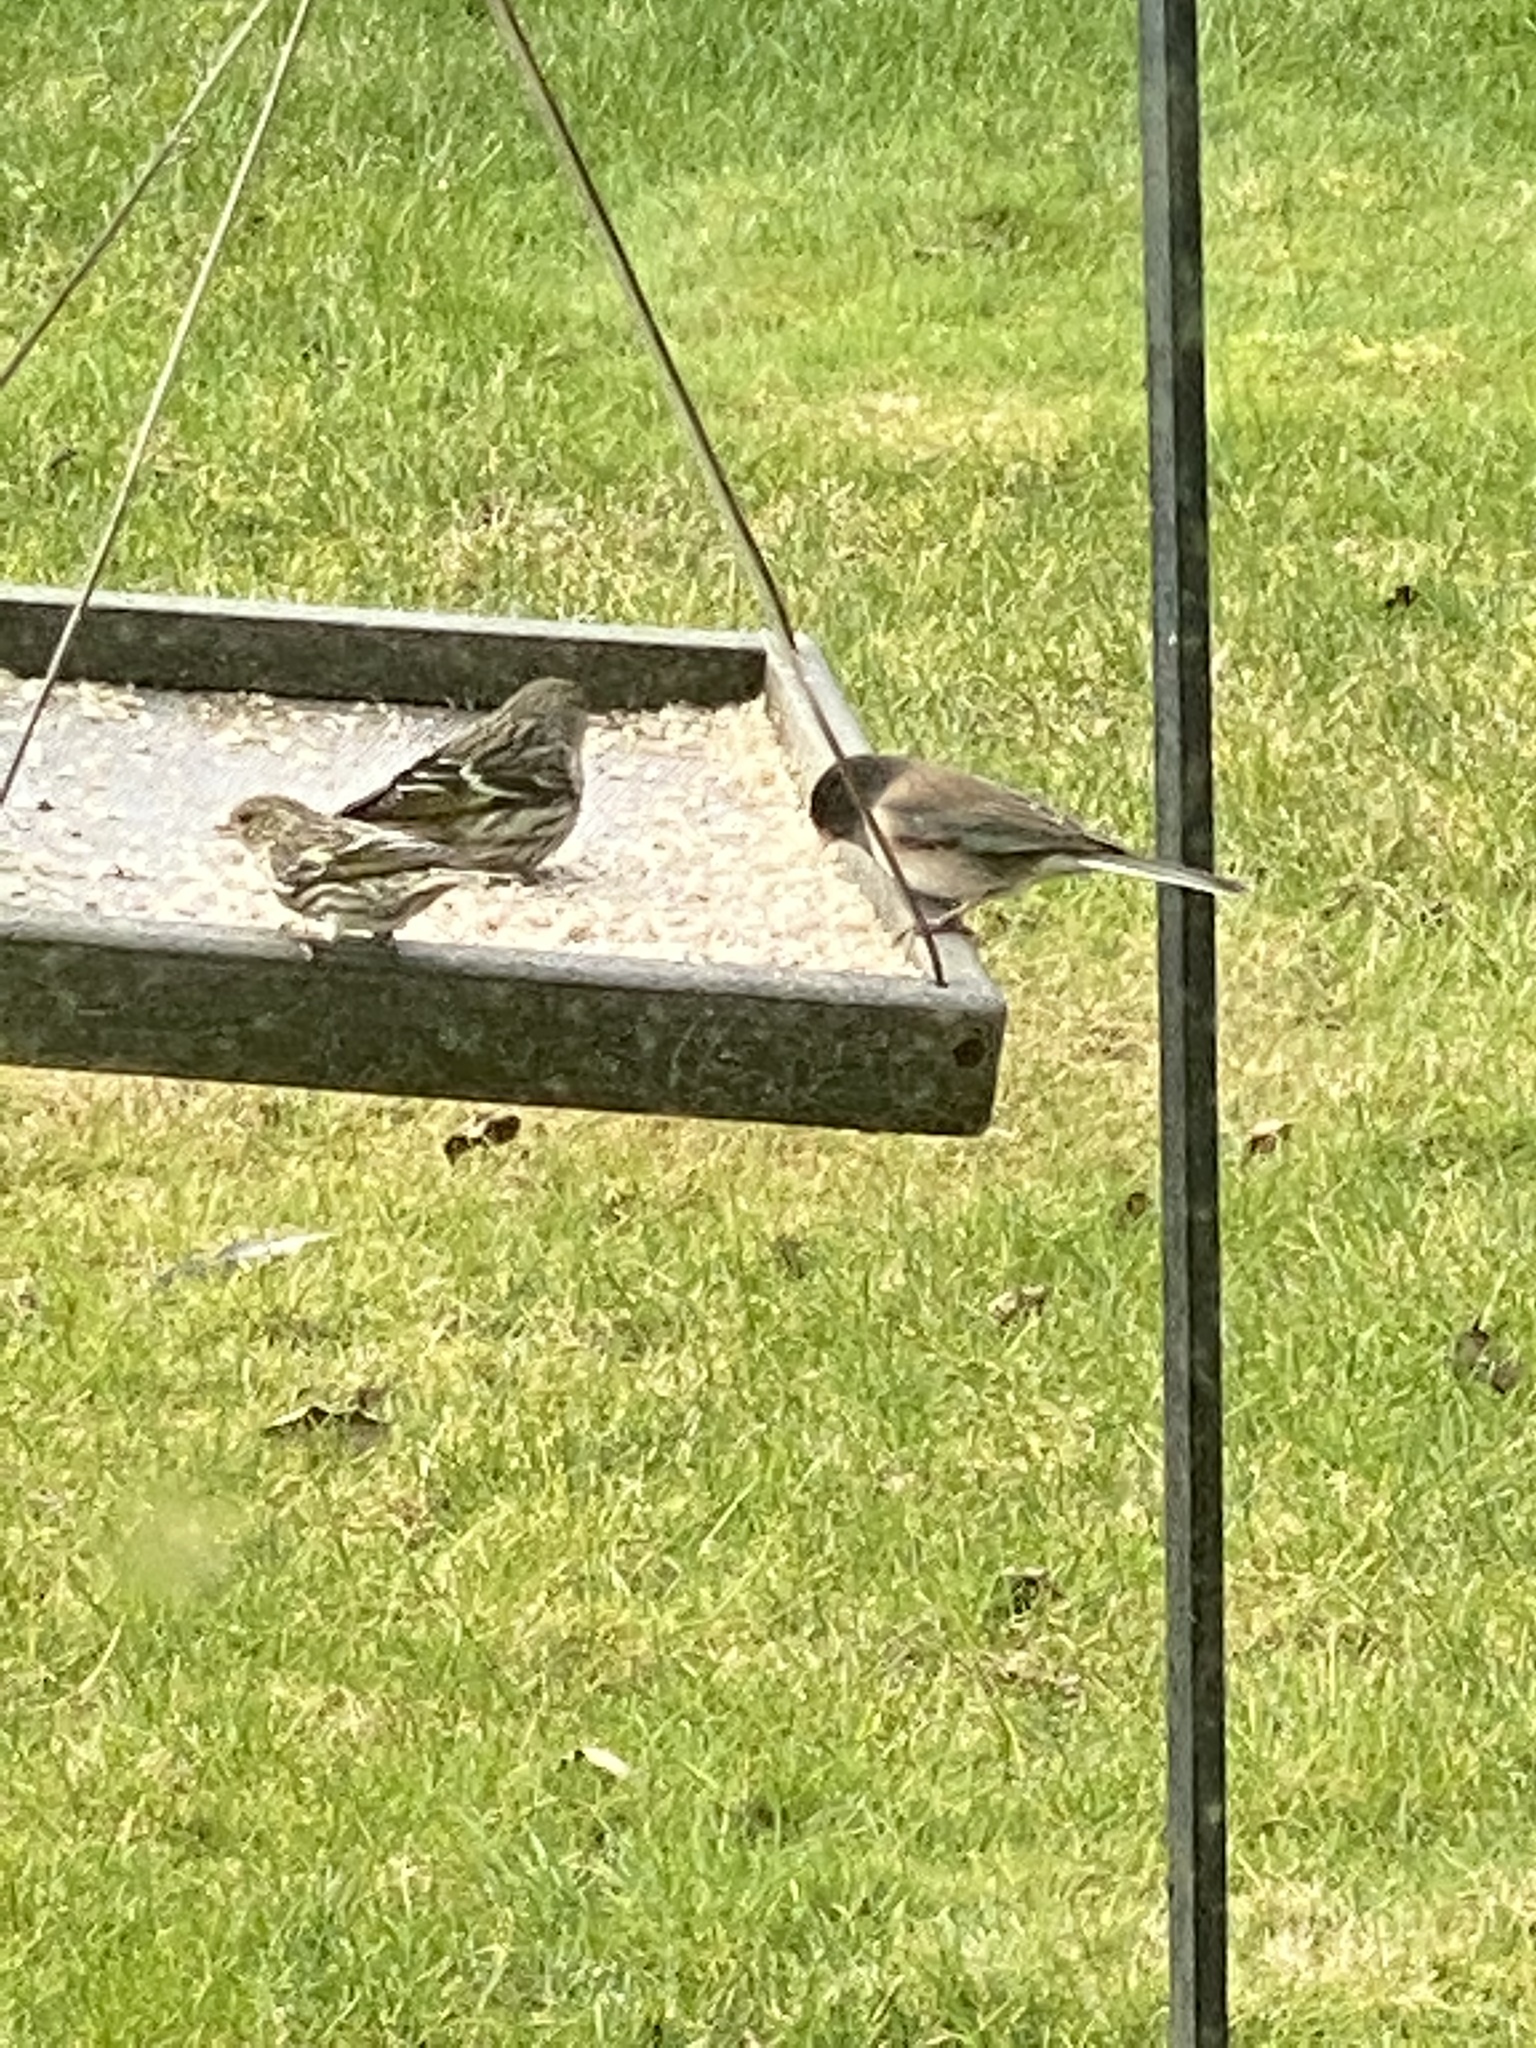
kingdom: Animalia
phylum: Chordata
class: Aves
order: Passeriformes
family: Passerellidae
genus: Junco
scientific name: Junco hyemalis
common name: Dark-eyed junco
